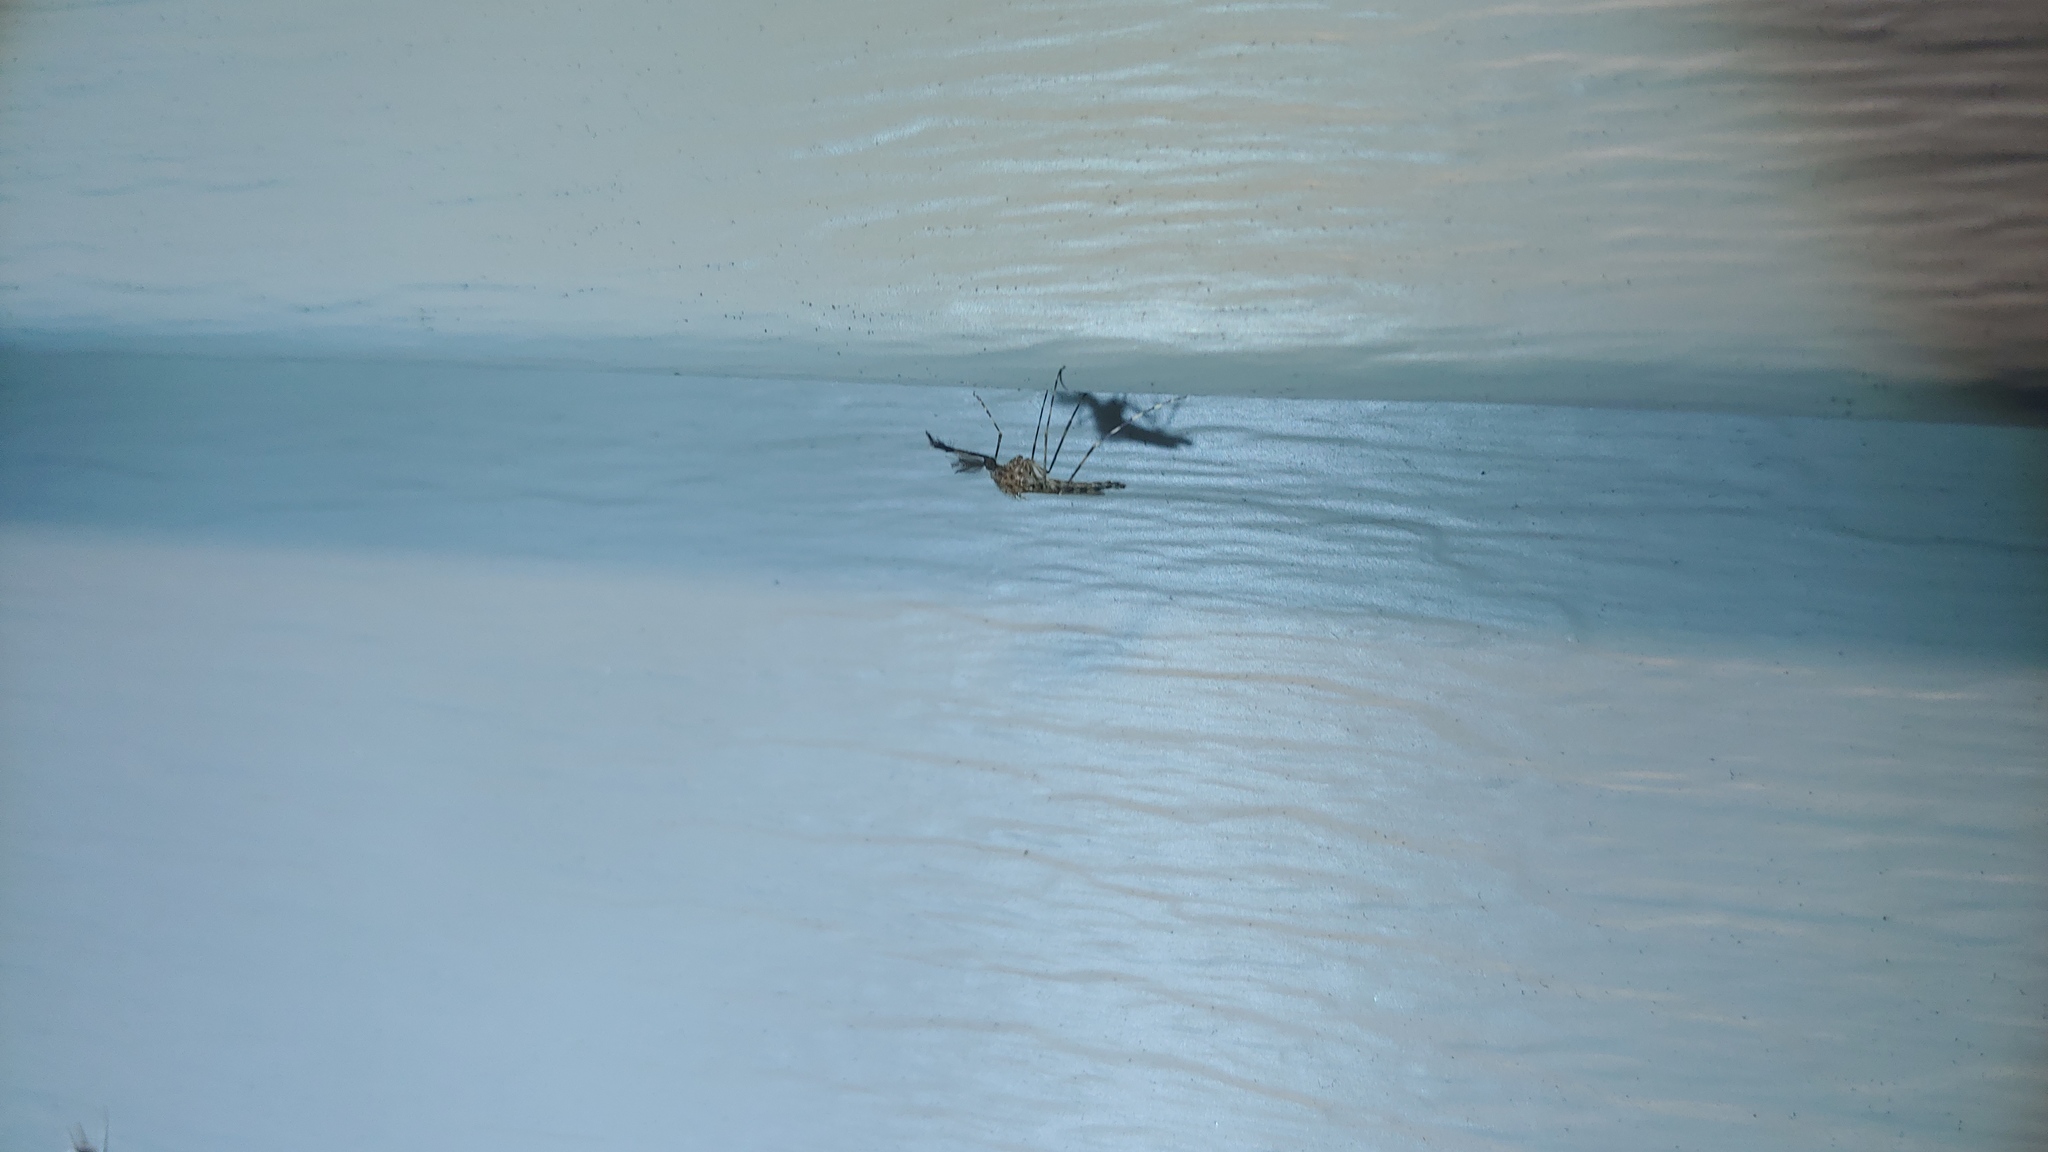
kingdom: Animalia
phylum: Arthropoda
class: Insecta
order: Diptera
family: Culicidae
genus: Coquillettidia
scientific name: Coquillettidia perturbans
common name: Cattail mosquito
